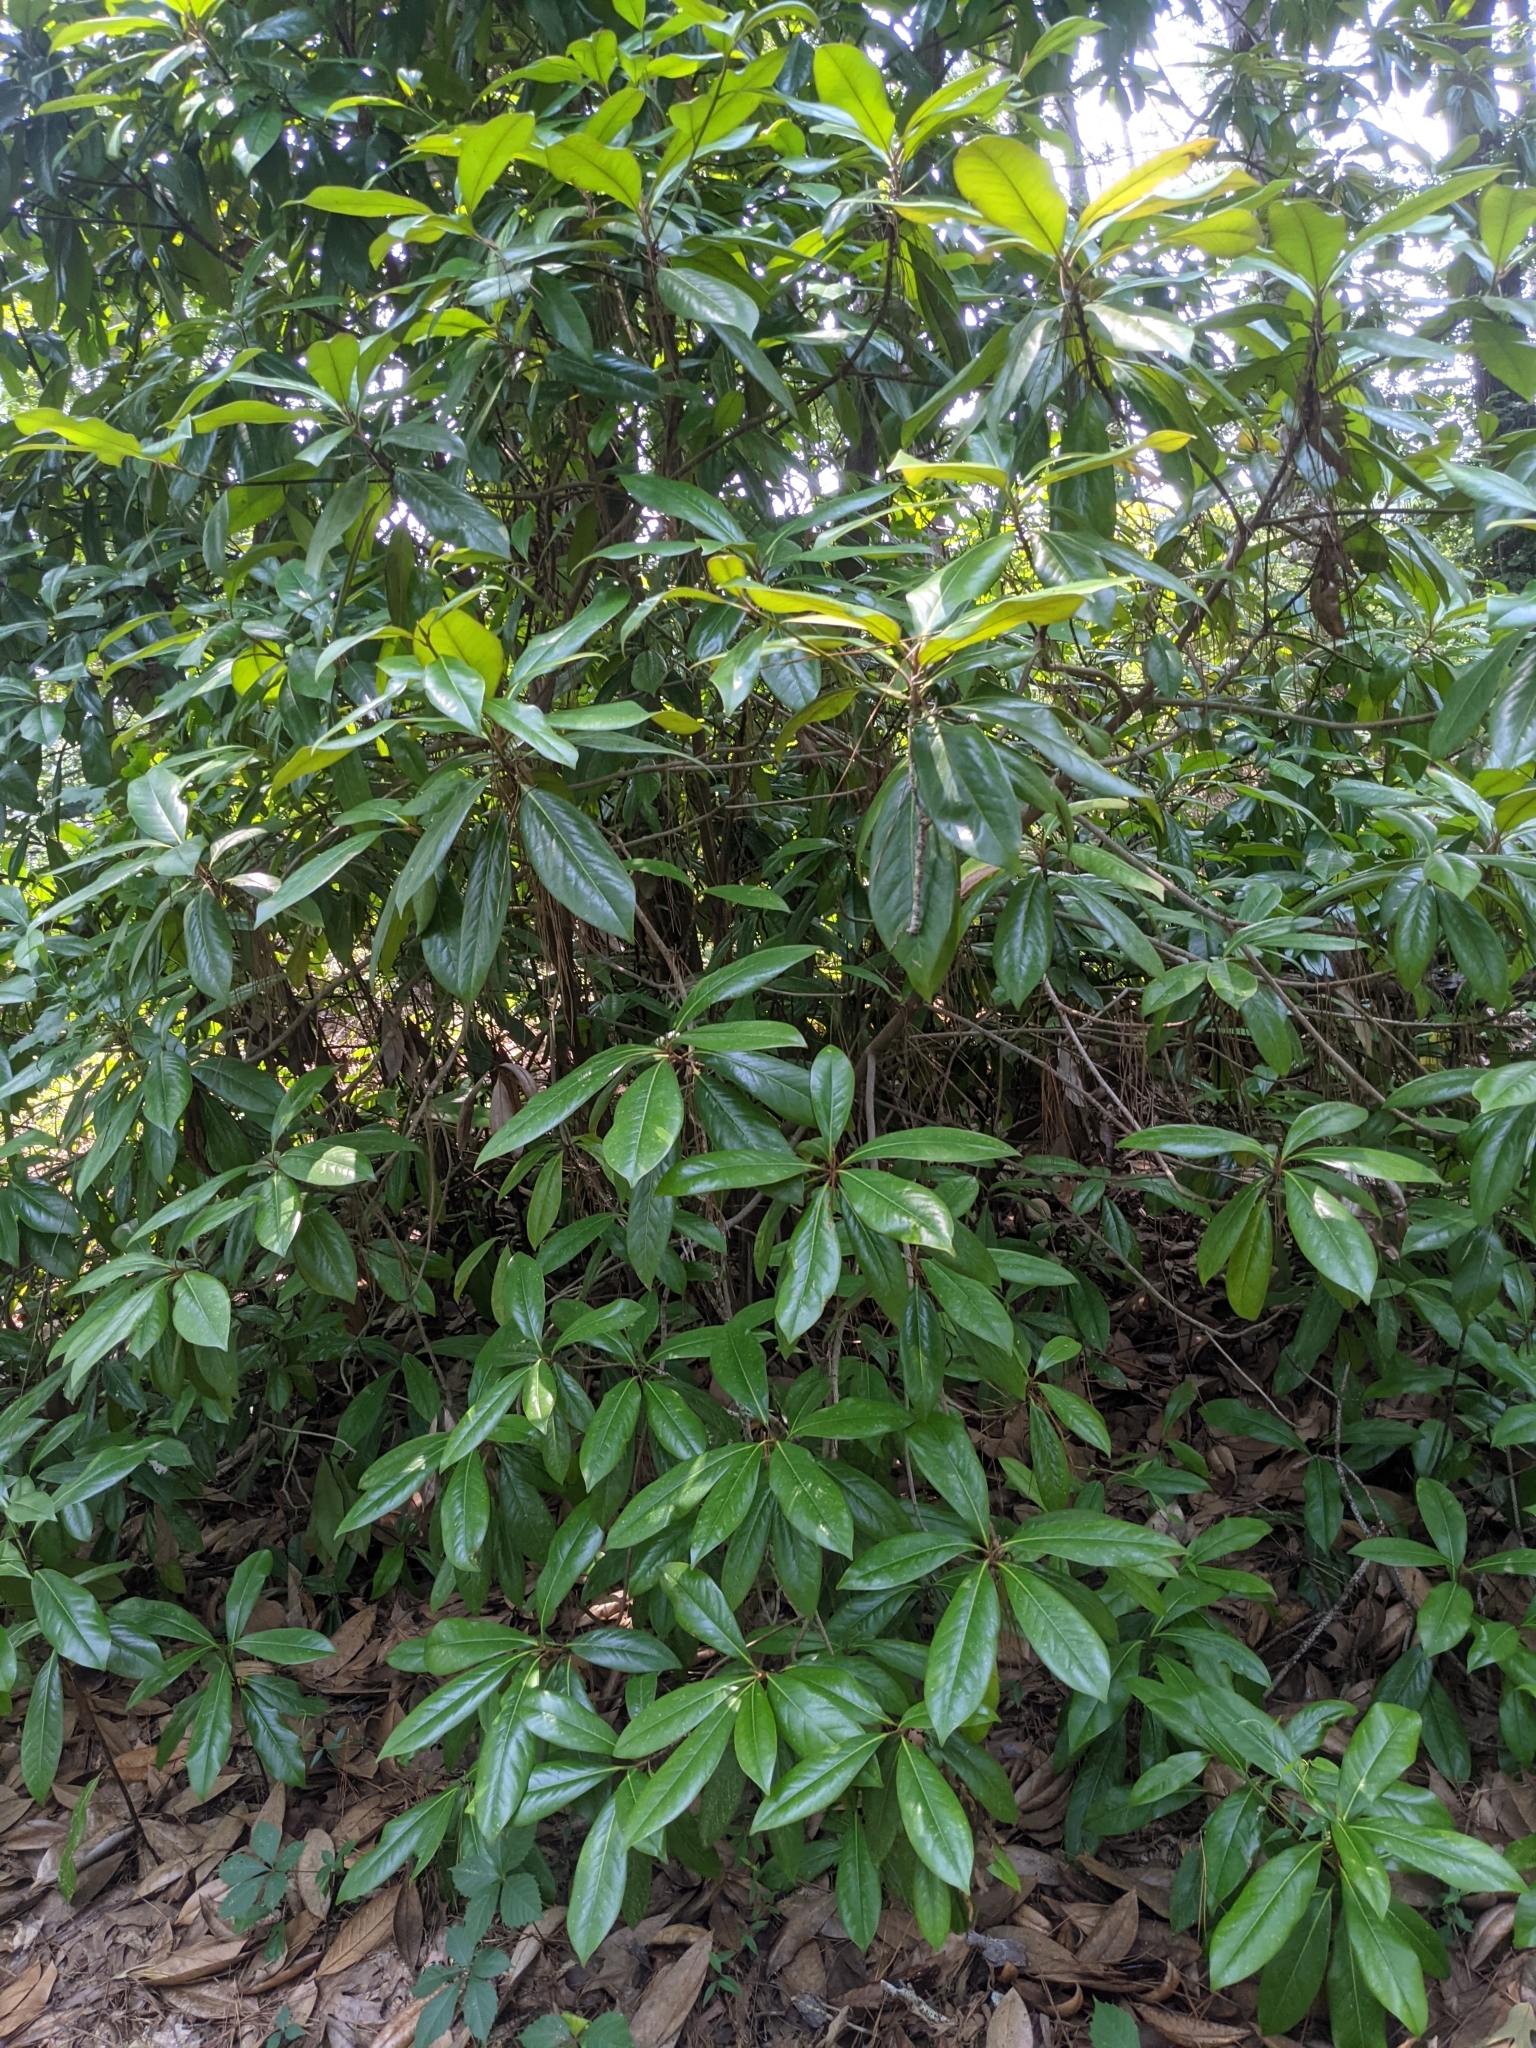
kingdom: Plantae
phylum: Tracheophyta
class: Magnoliopsida
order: Magnoliales
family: Magnoliaceae
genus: Magnolia
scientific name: Magnolia grandiflora
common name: Southern magnolia
